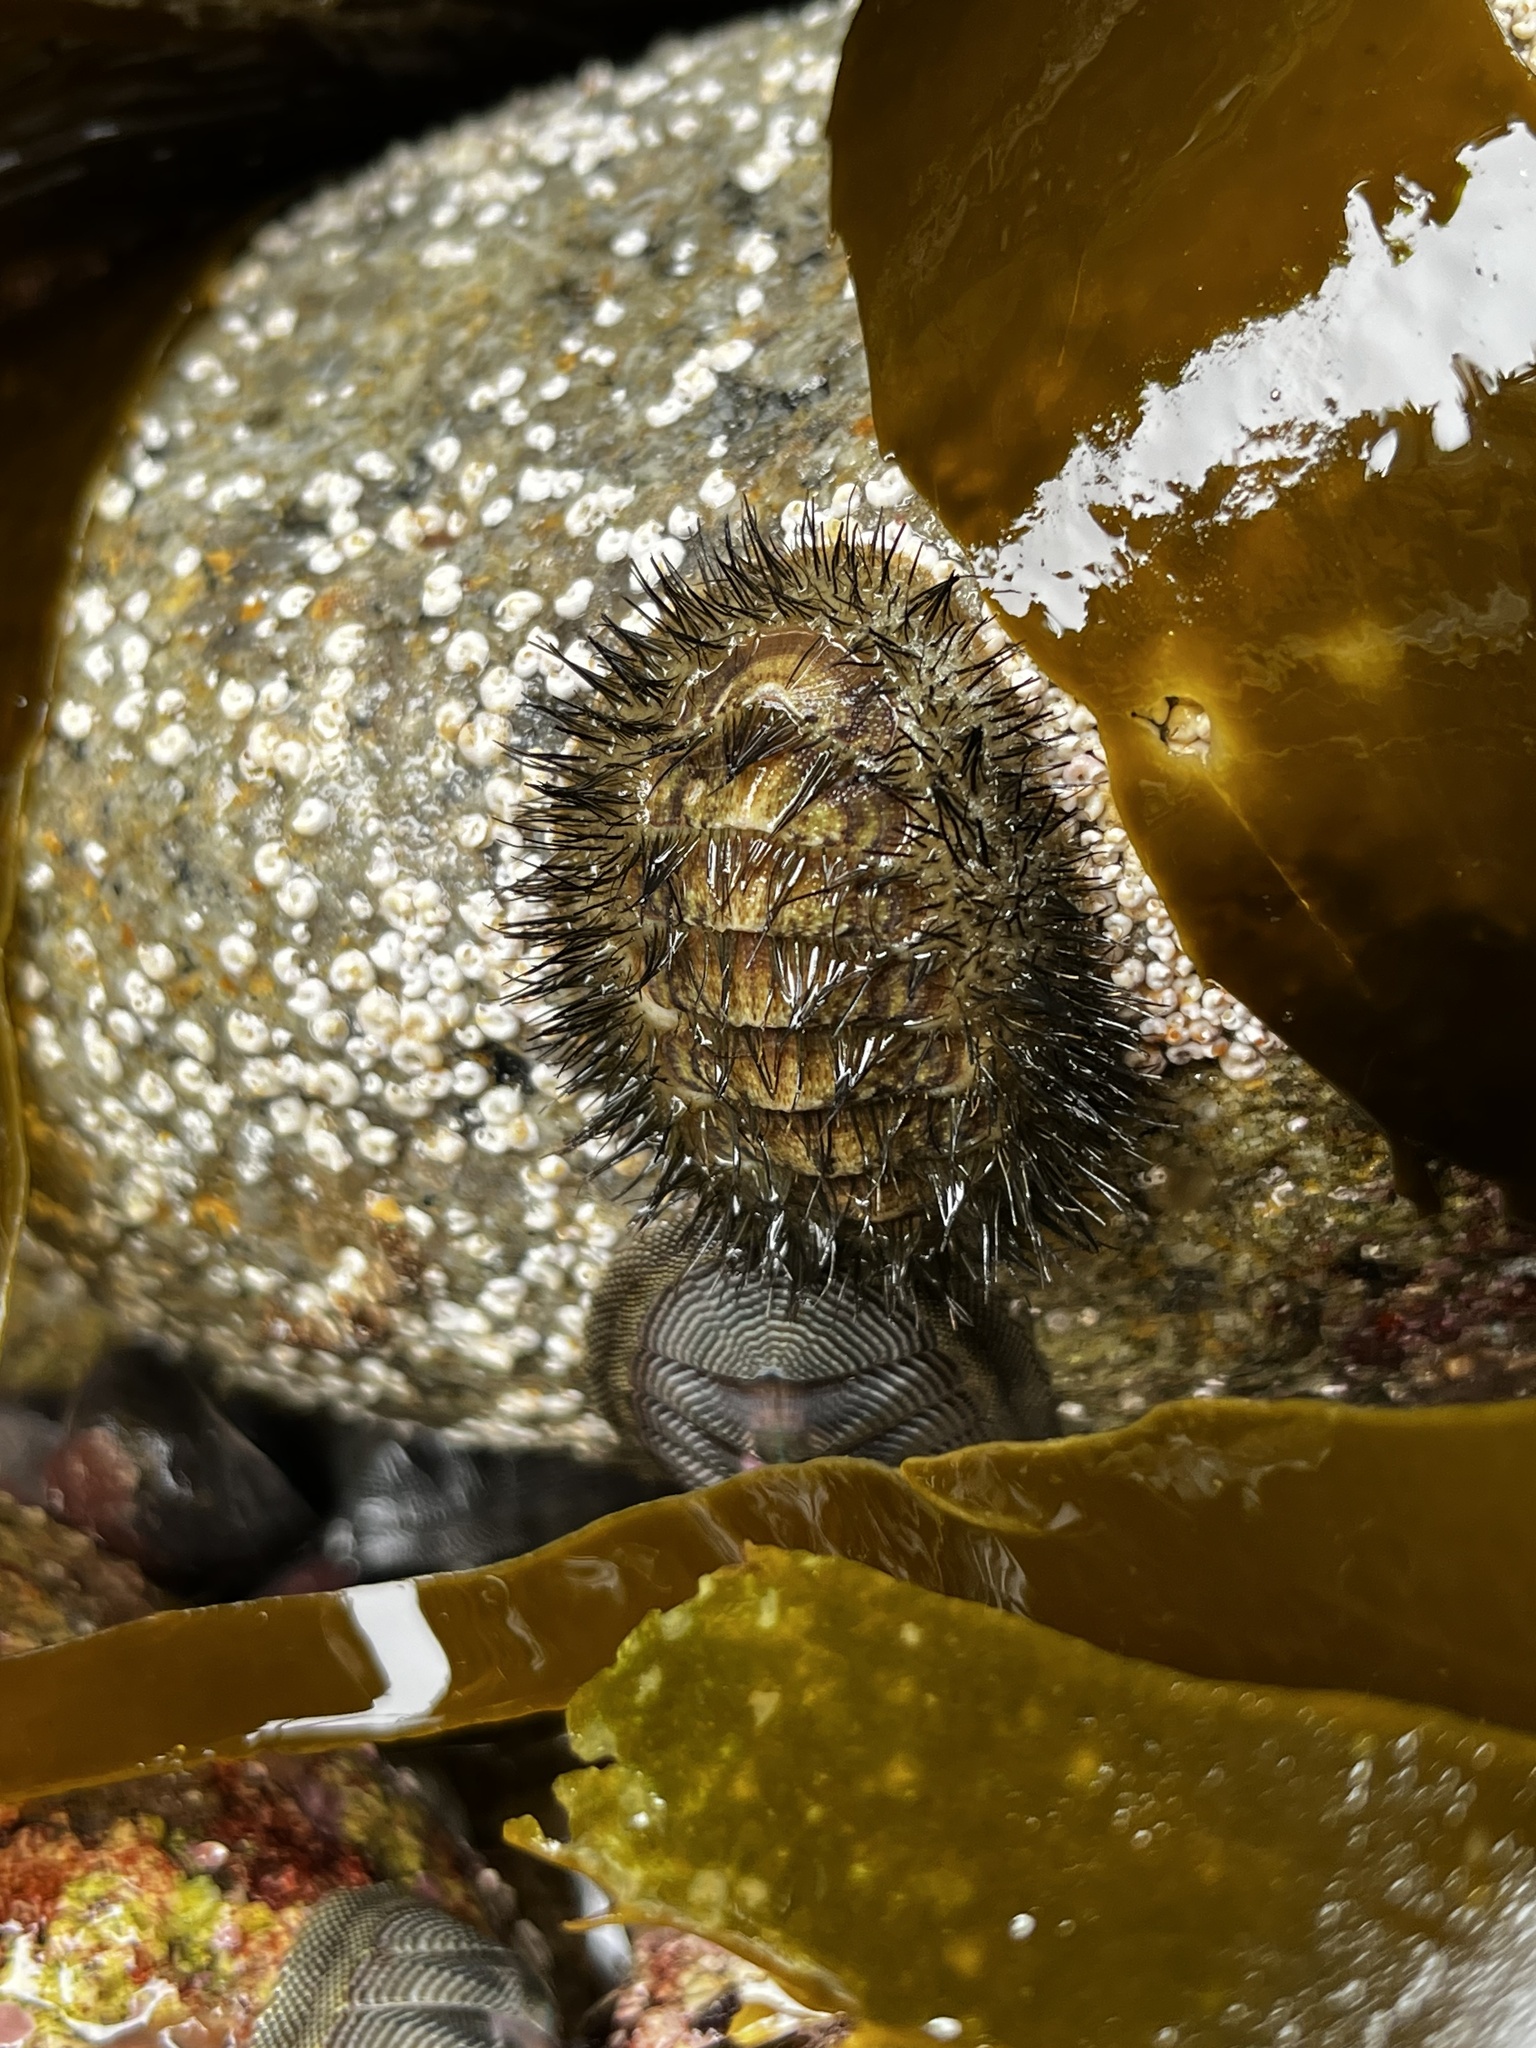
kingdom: Animalia
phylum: Mollusca
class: Polyplacophora
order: Chitonida
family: Chaetopleuridae
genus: Chaetopleura
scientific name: Chaetopleura peruviana
